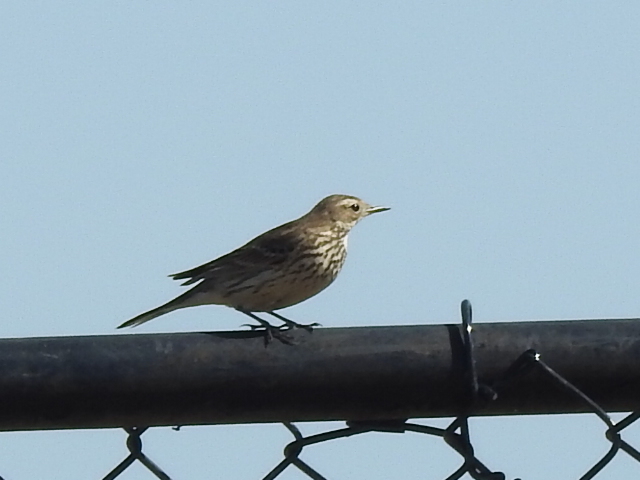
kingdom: Animalia
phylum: Chordata
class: Aves
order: Passeriformes
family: Motacillidae
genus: Anthus
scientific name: Anthus rubescens
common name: Buff-bellied pipit
